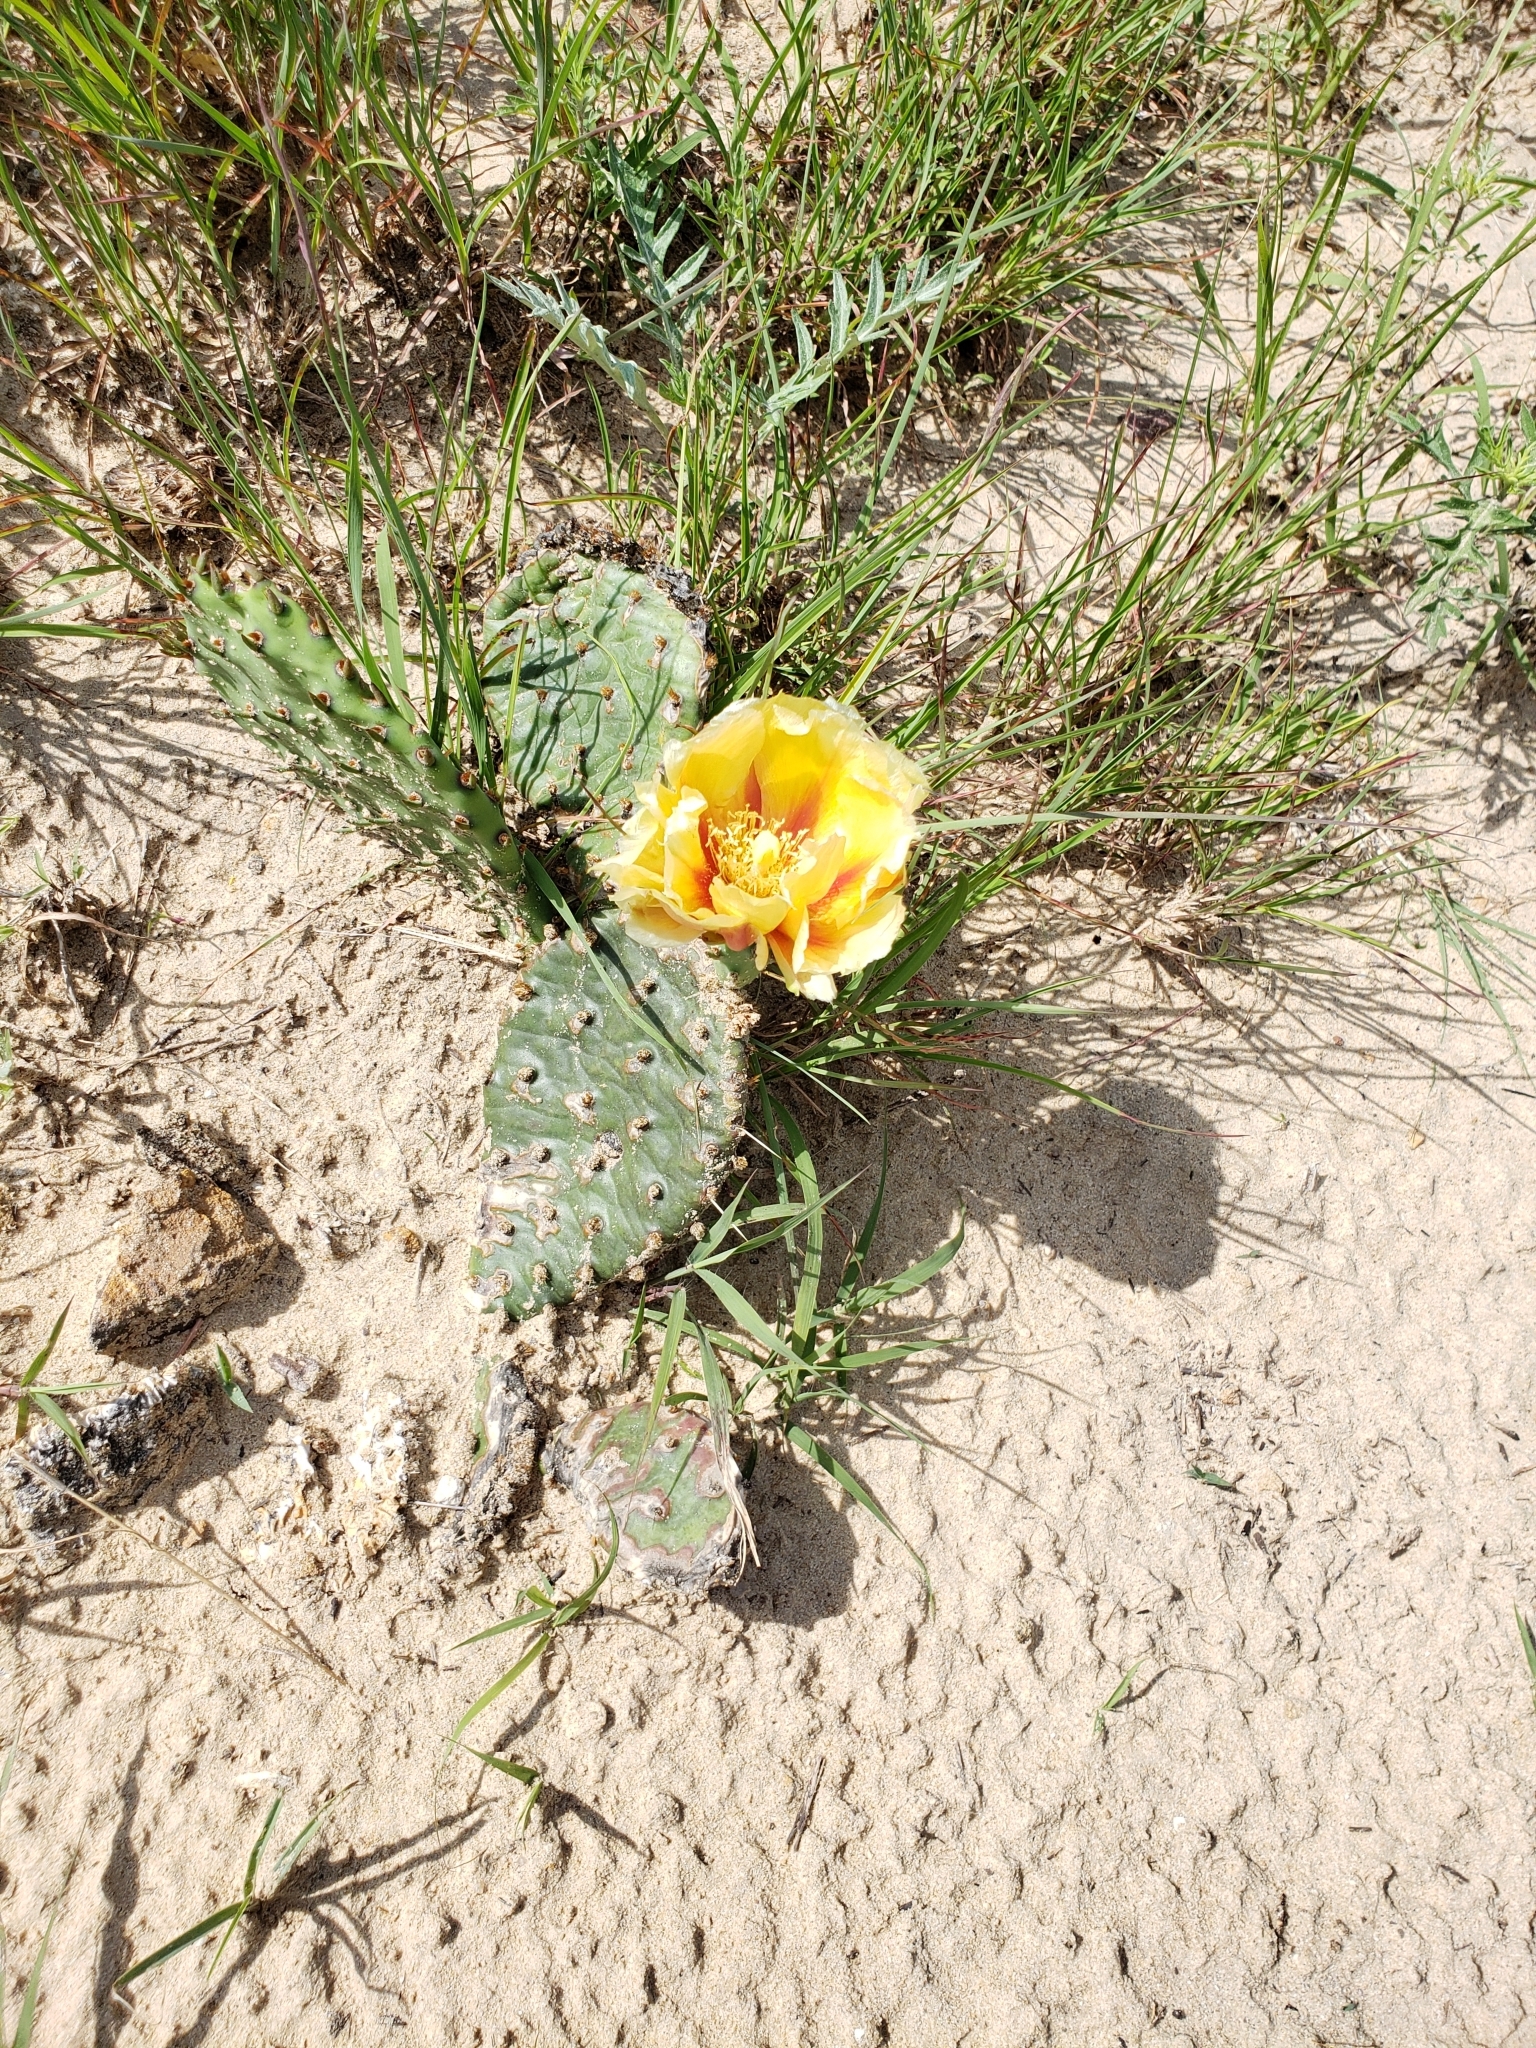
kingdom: Plantae
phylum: Tracheophyta
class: Magnoliopsida
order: Caryophyllales
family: Cactaceae
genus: Opuntia
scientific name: Opuntia macrorhiza
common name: Grassland pricklypear
